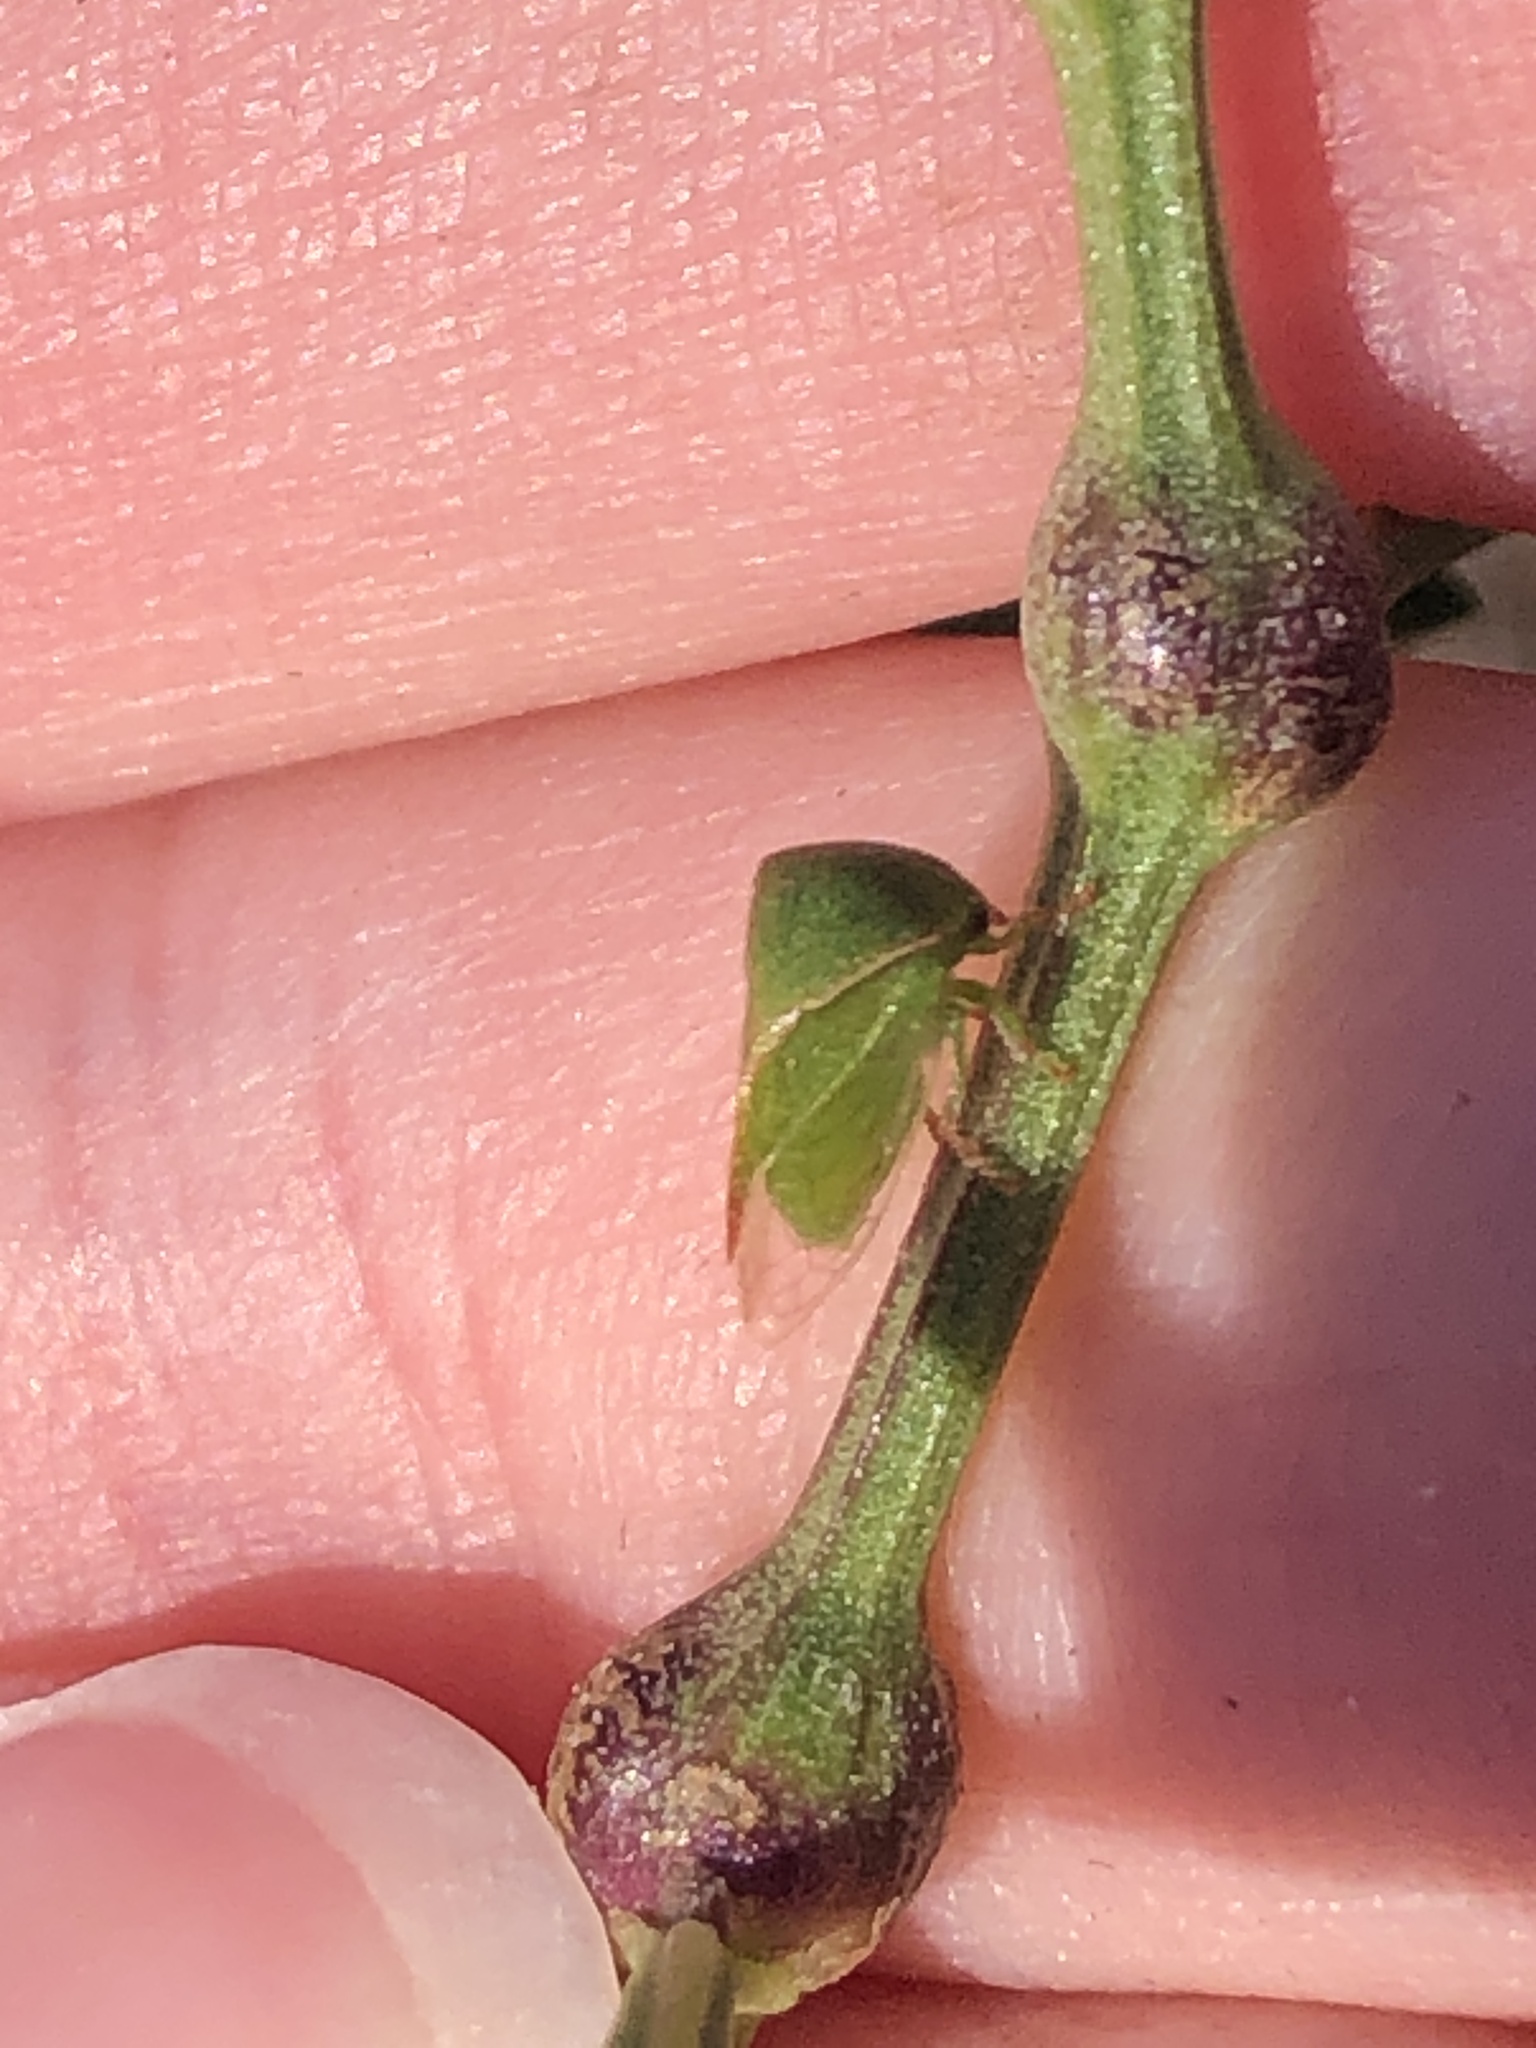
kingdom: Animalia
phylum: Arthropoda
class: Insecta
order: Hemiptera
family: Membracidae
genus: Spissistilus
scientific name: Spissistilus festina
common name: Membracid bug
